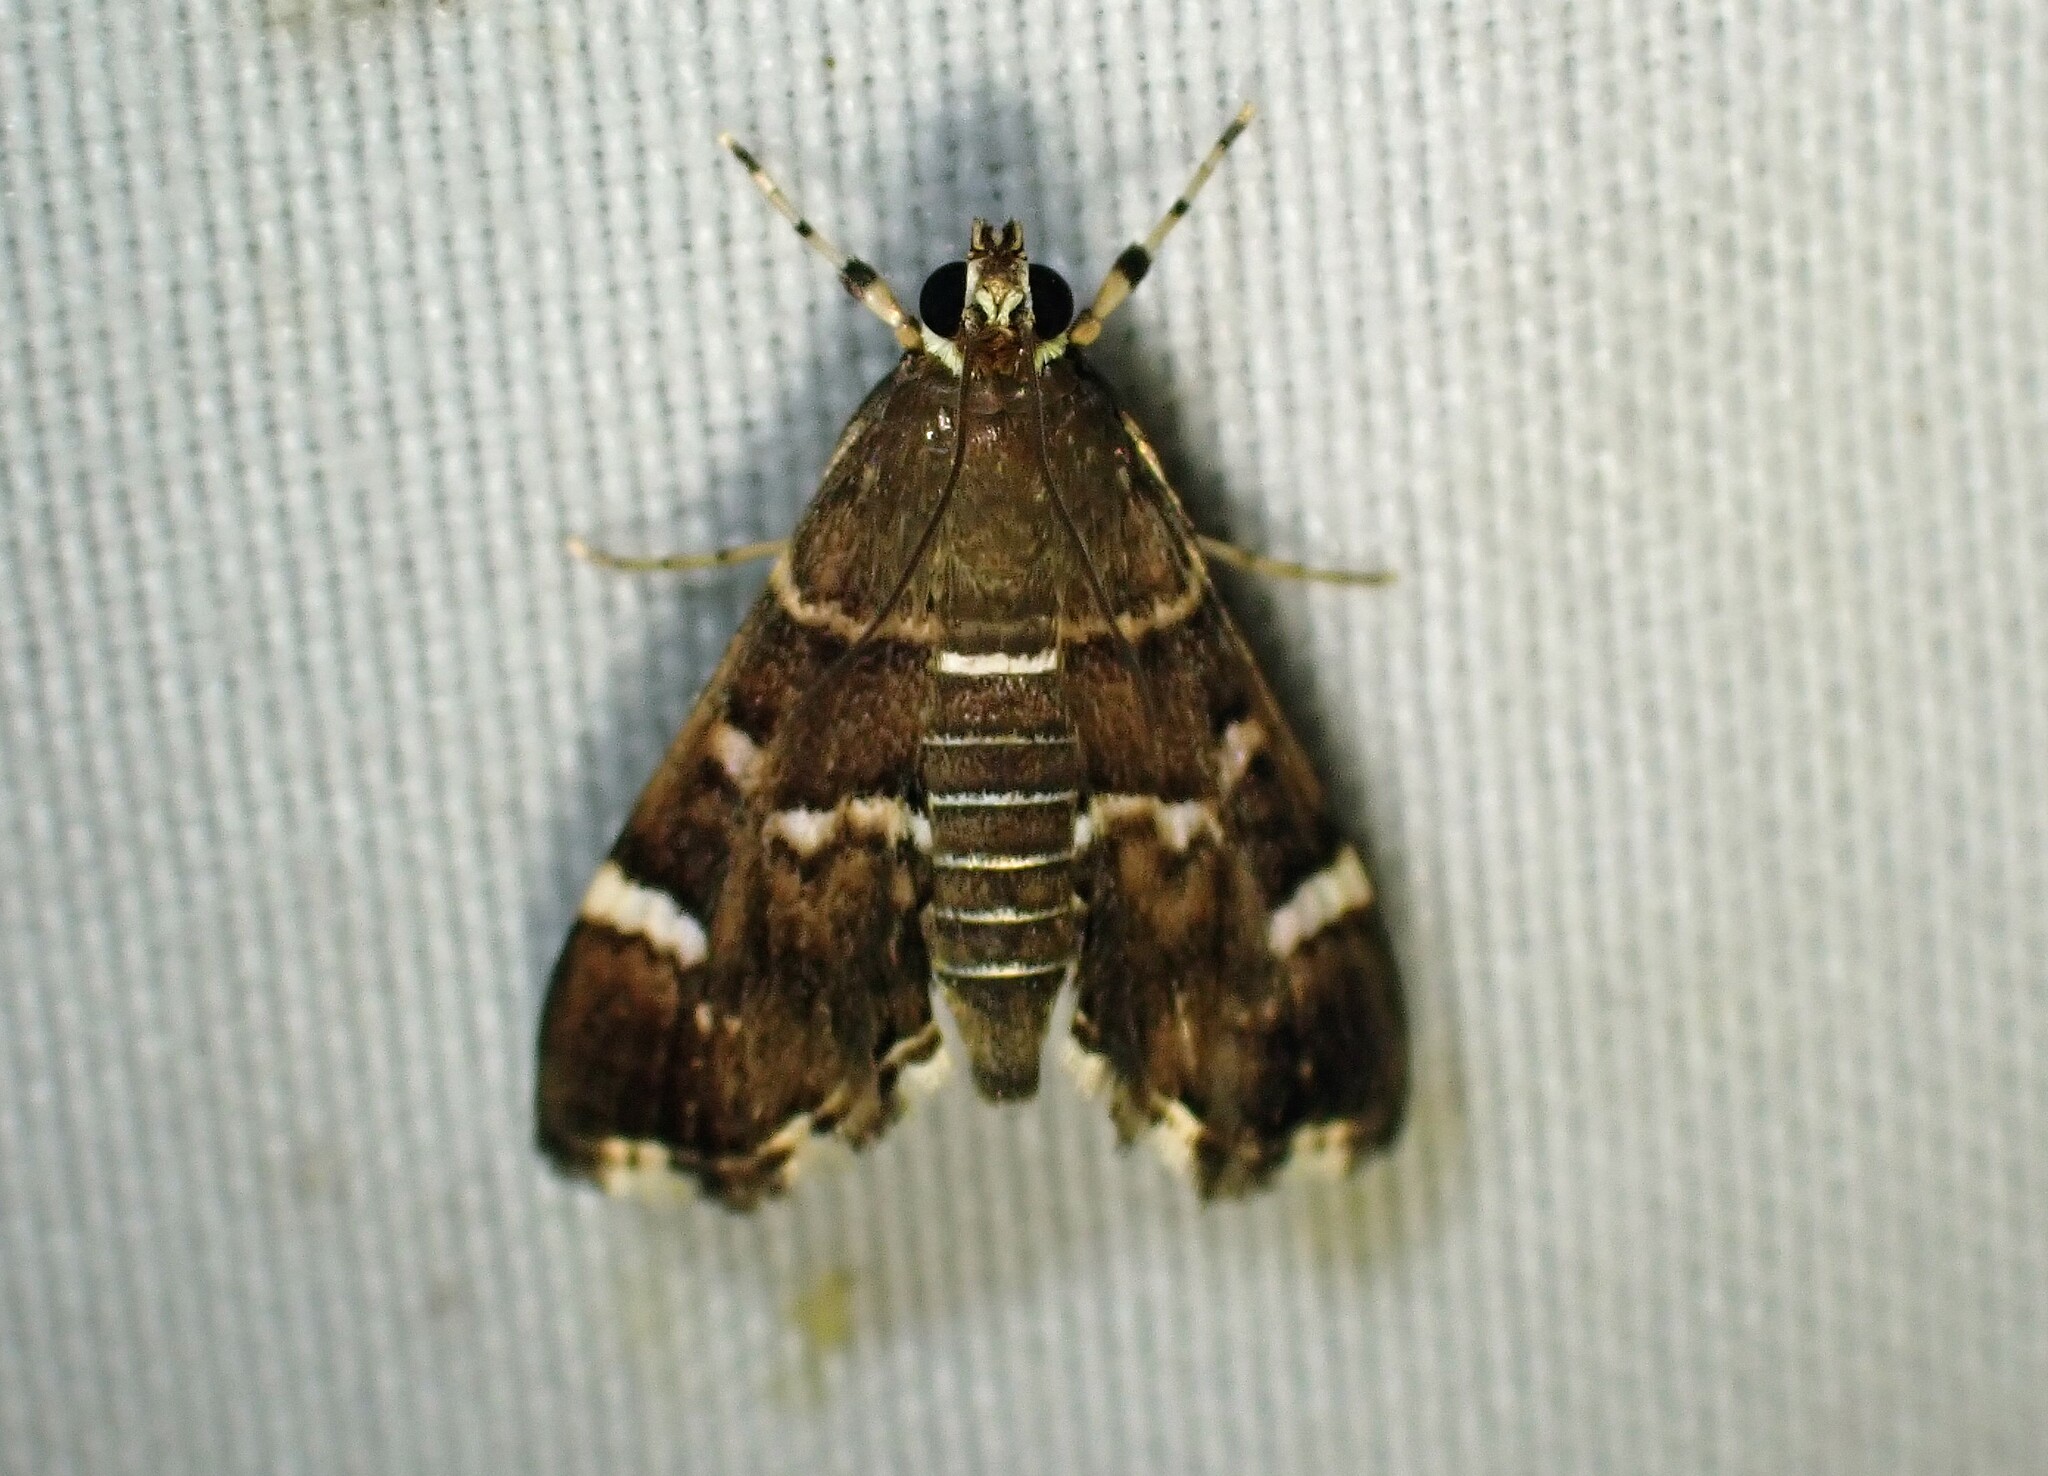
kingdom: Animalia
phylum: Arthropoda
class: Insecta
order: Lepidoptera
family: Crambidae
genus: Hymenia
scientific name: Hymenia perspectalis
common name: Spotted beet webworm
